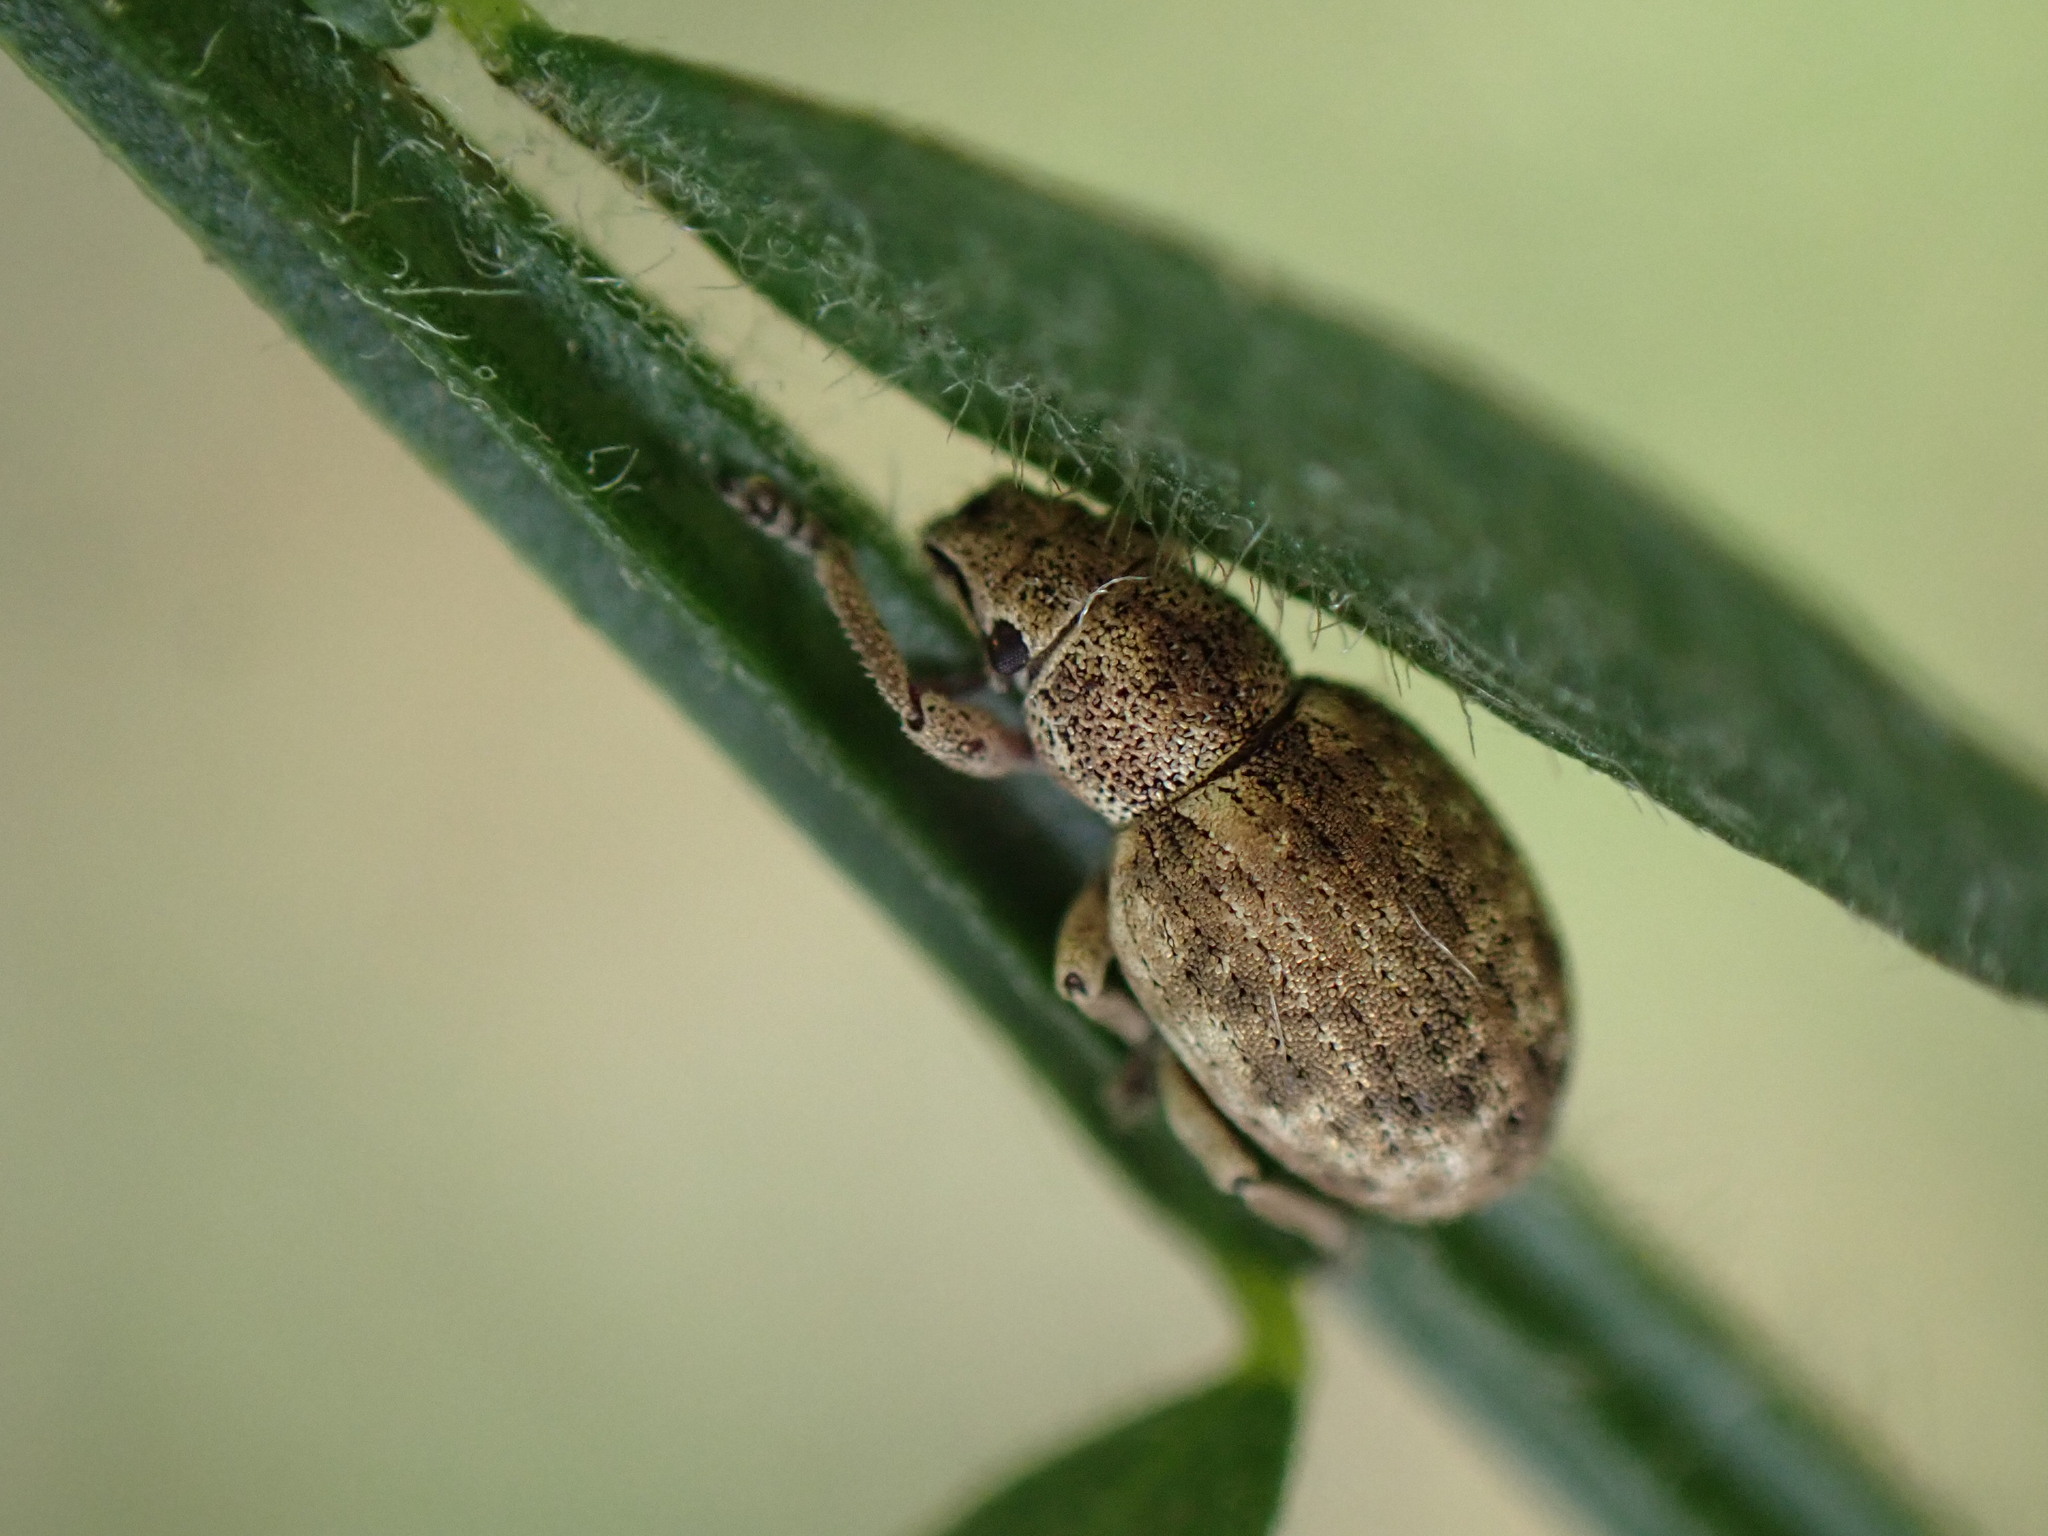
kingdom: Animalia
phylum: Arthropoda
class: Insecta
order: Coleoptera
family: Curculionidae
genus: Strophosoma
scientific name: Strophosoma capitatum
